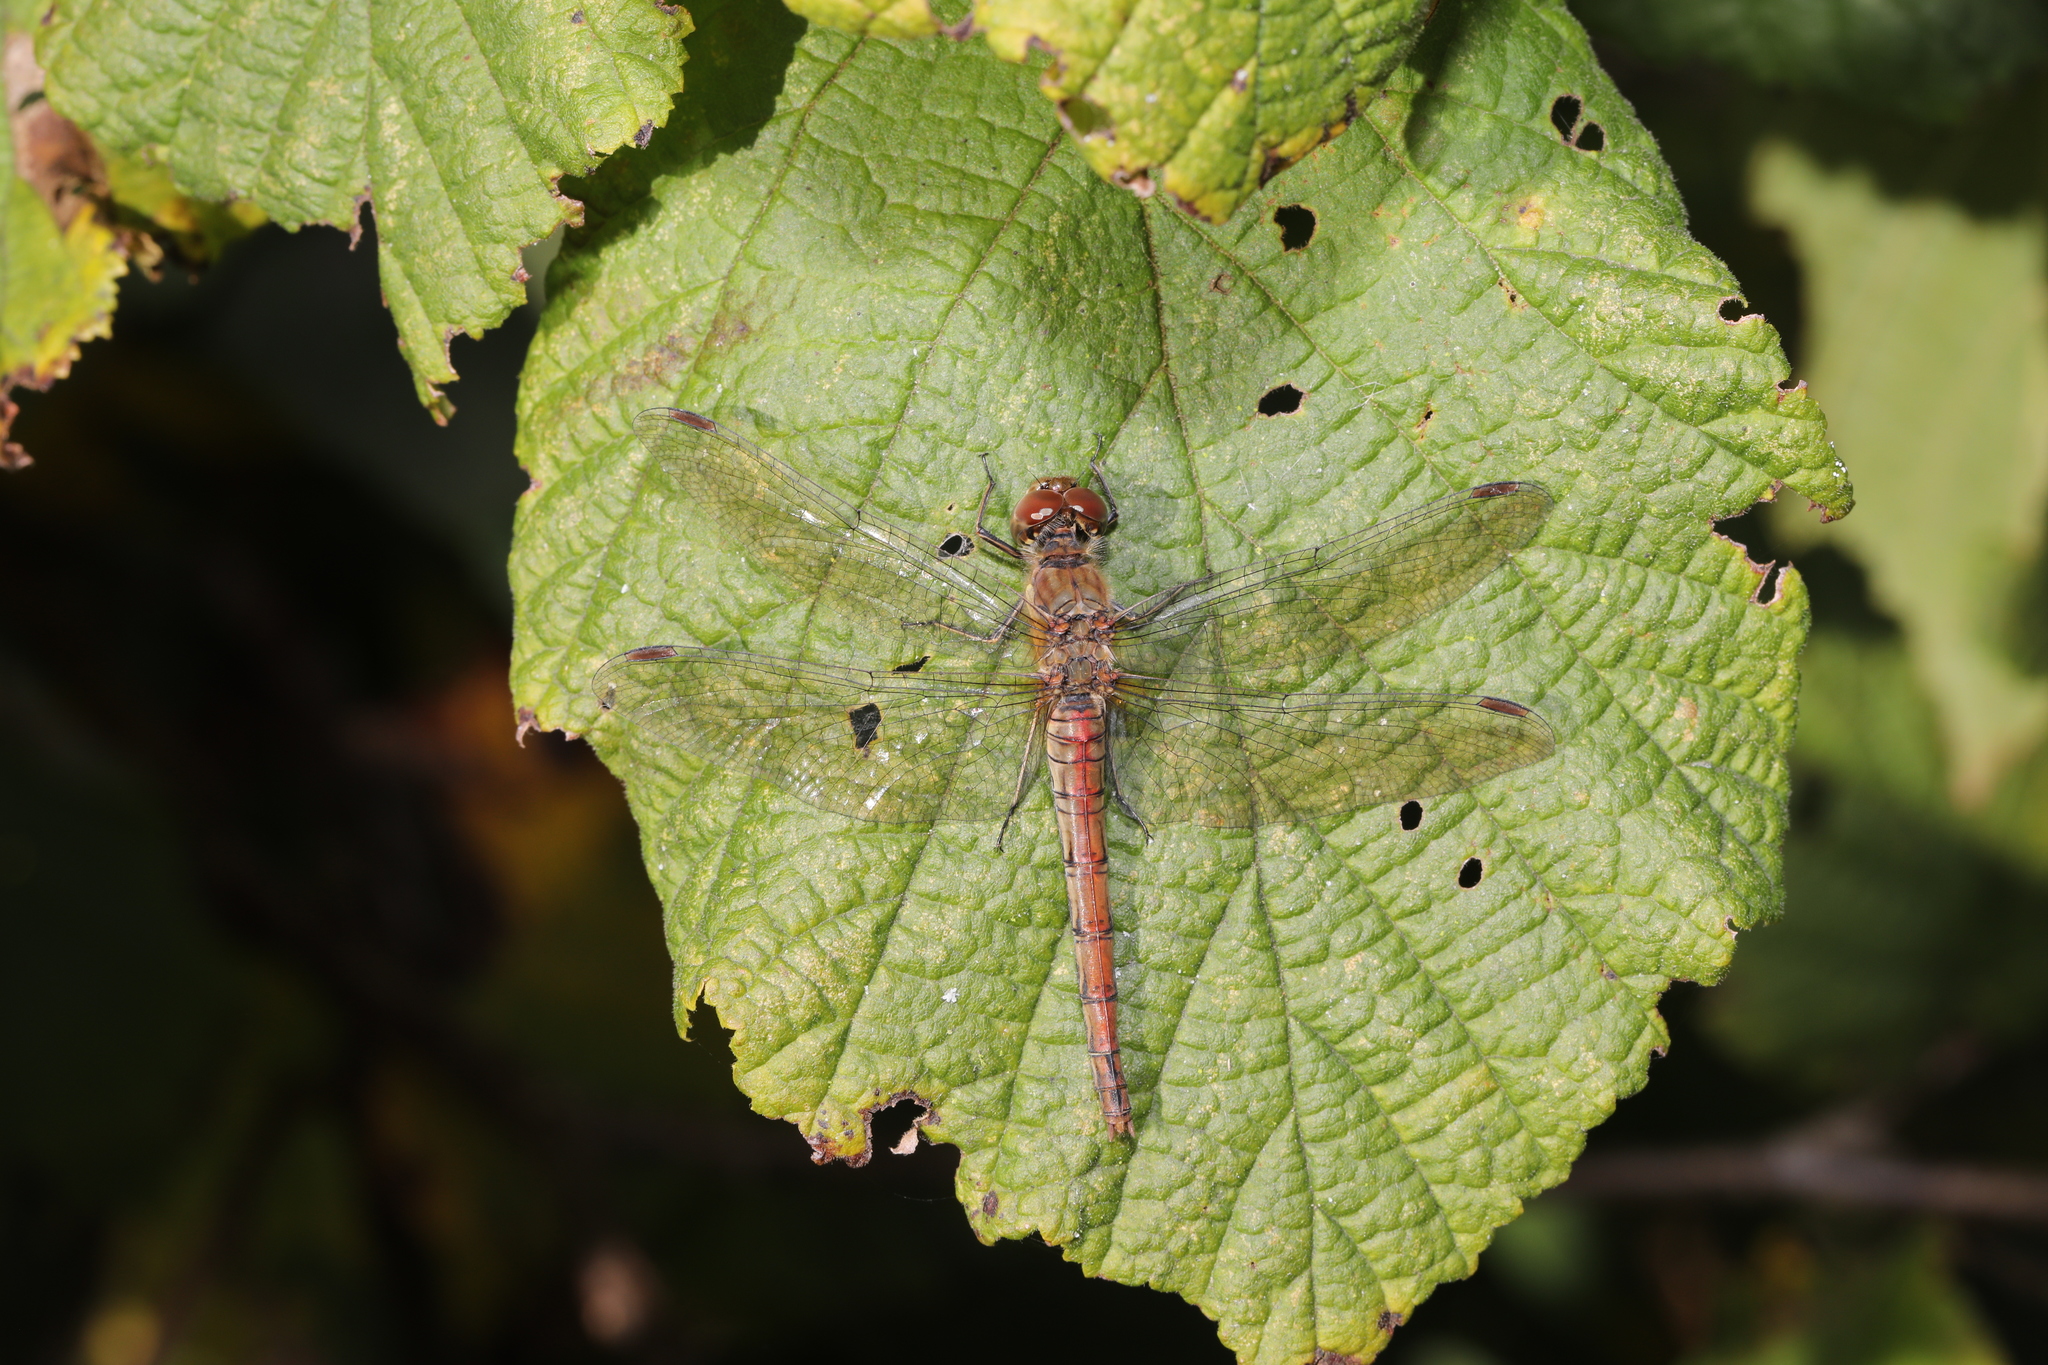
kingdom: Animalia
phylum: Arthropoda
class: Insecta
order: Odonata
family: Libellulidae
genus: Sympetrum
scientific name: Sympetrum striolatum
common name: Common darter
